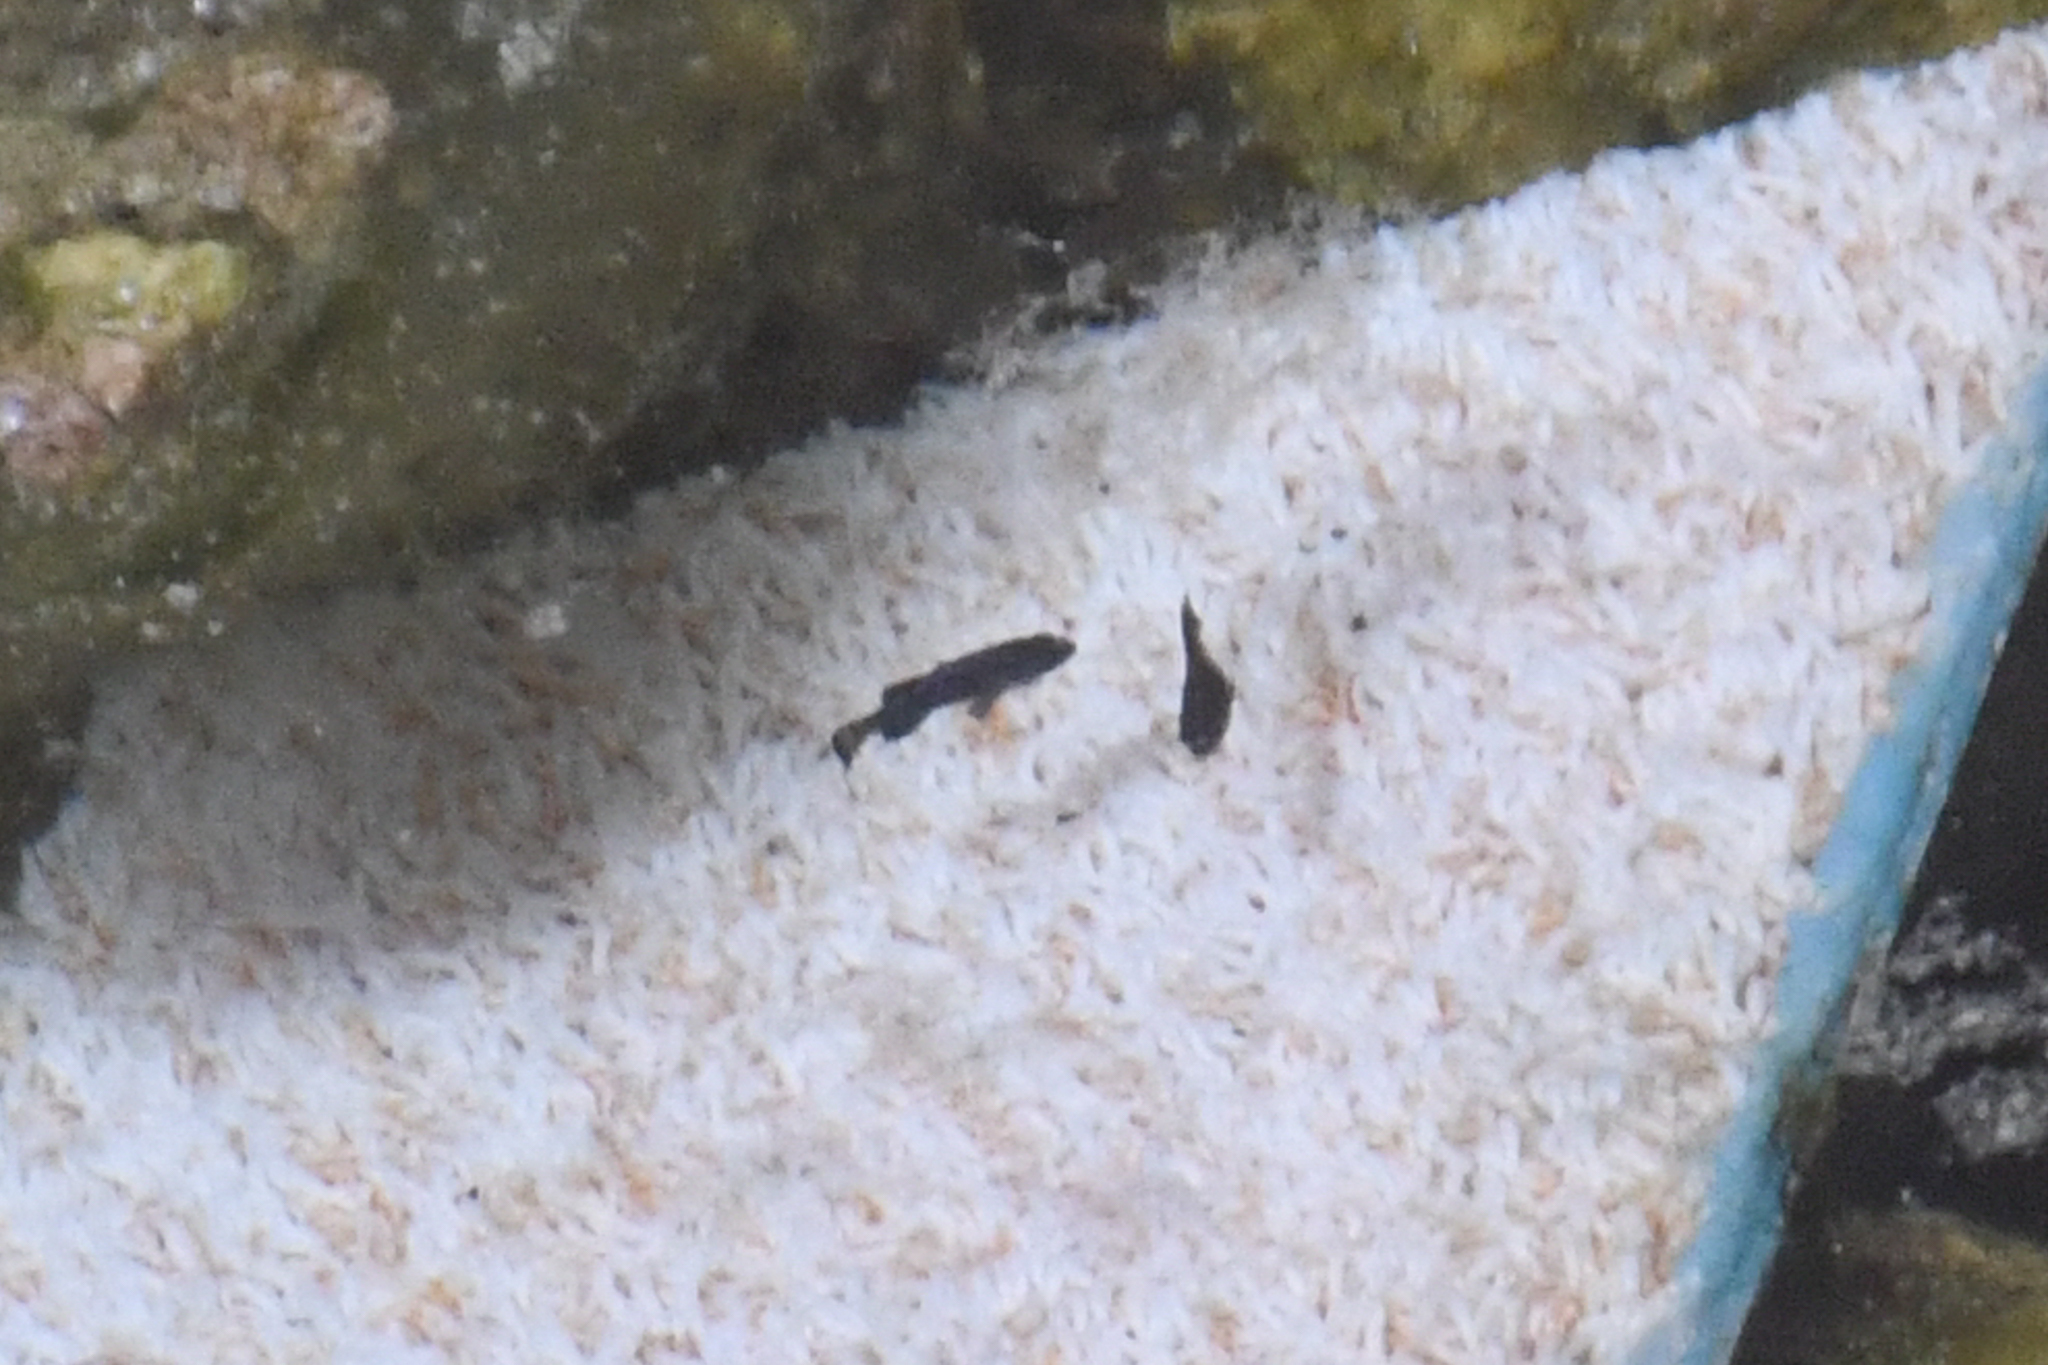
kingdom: Animalia
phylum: Chordata
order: Cyprinodontiformes
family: Cyprinodontidae
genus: Cyprinodon
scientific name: Cyprinodon diabolis
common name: Devils hole pupfish
